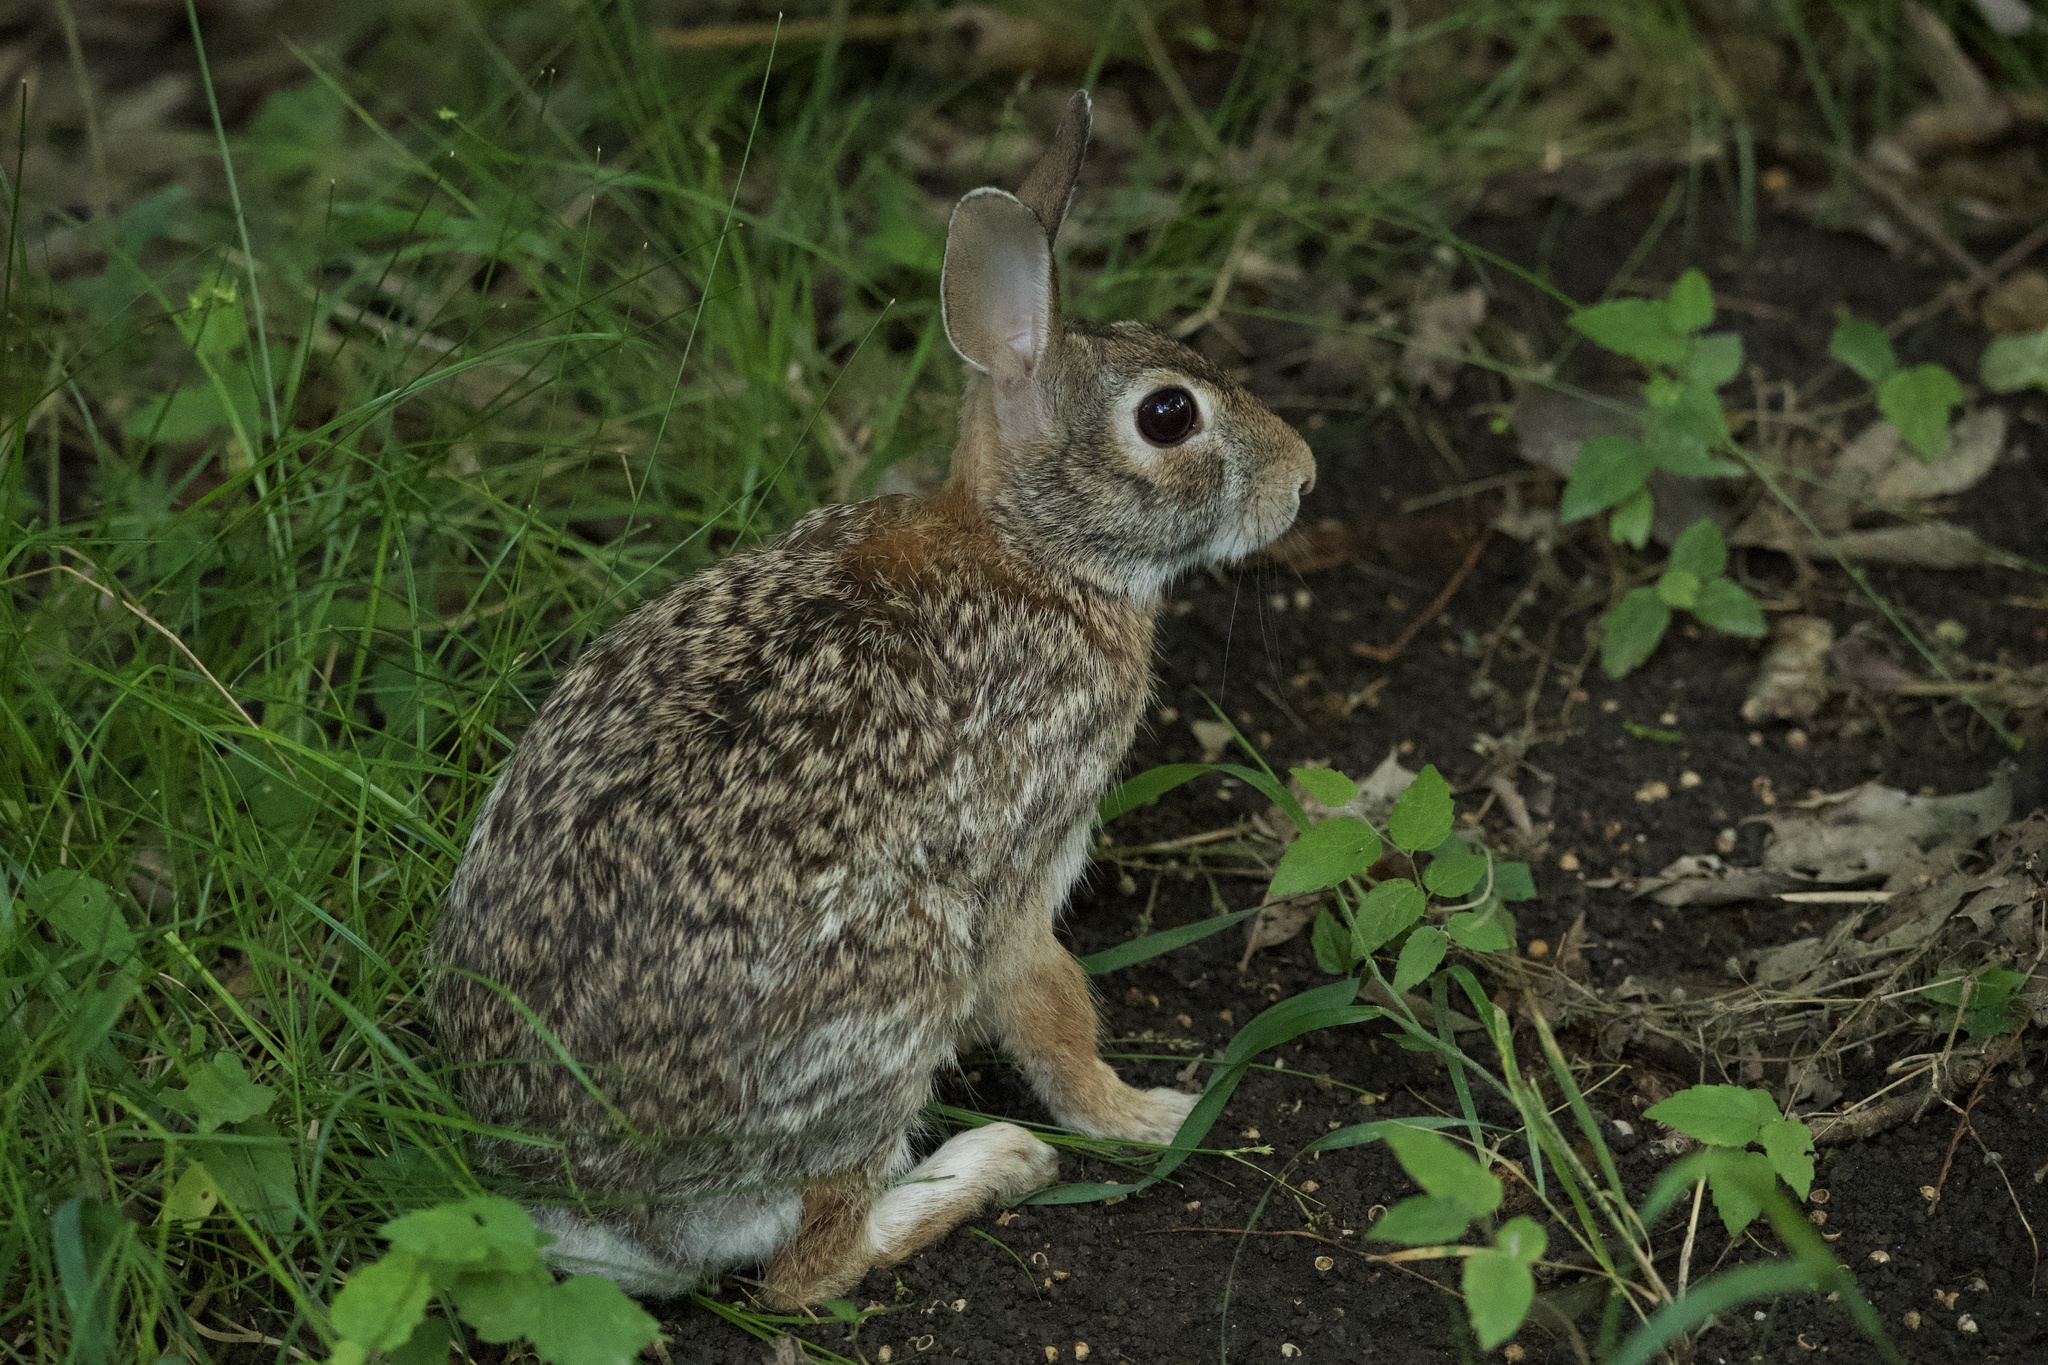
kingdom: Animalia
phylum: Chordata
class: Mammalia
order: Lagomorpha
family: Leporidae
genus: Sylvilagus
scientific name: Sylvilagus floridanus
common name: Eastern cottontail
